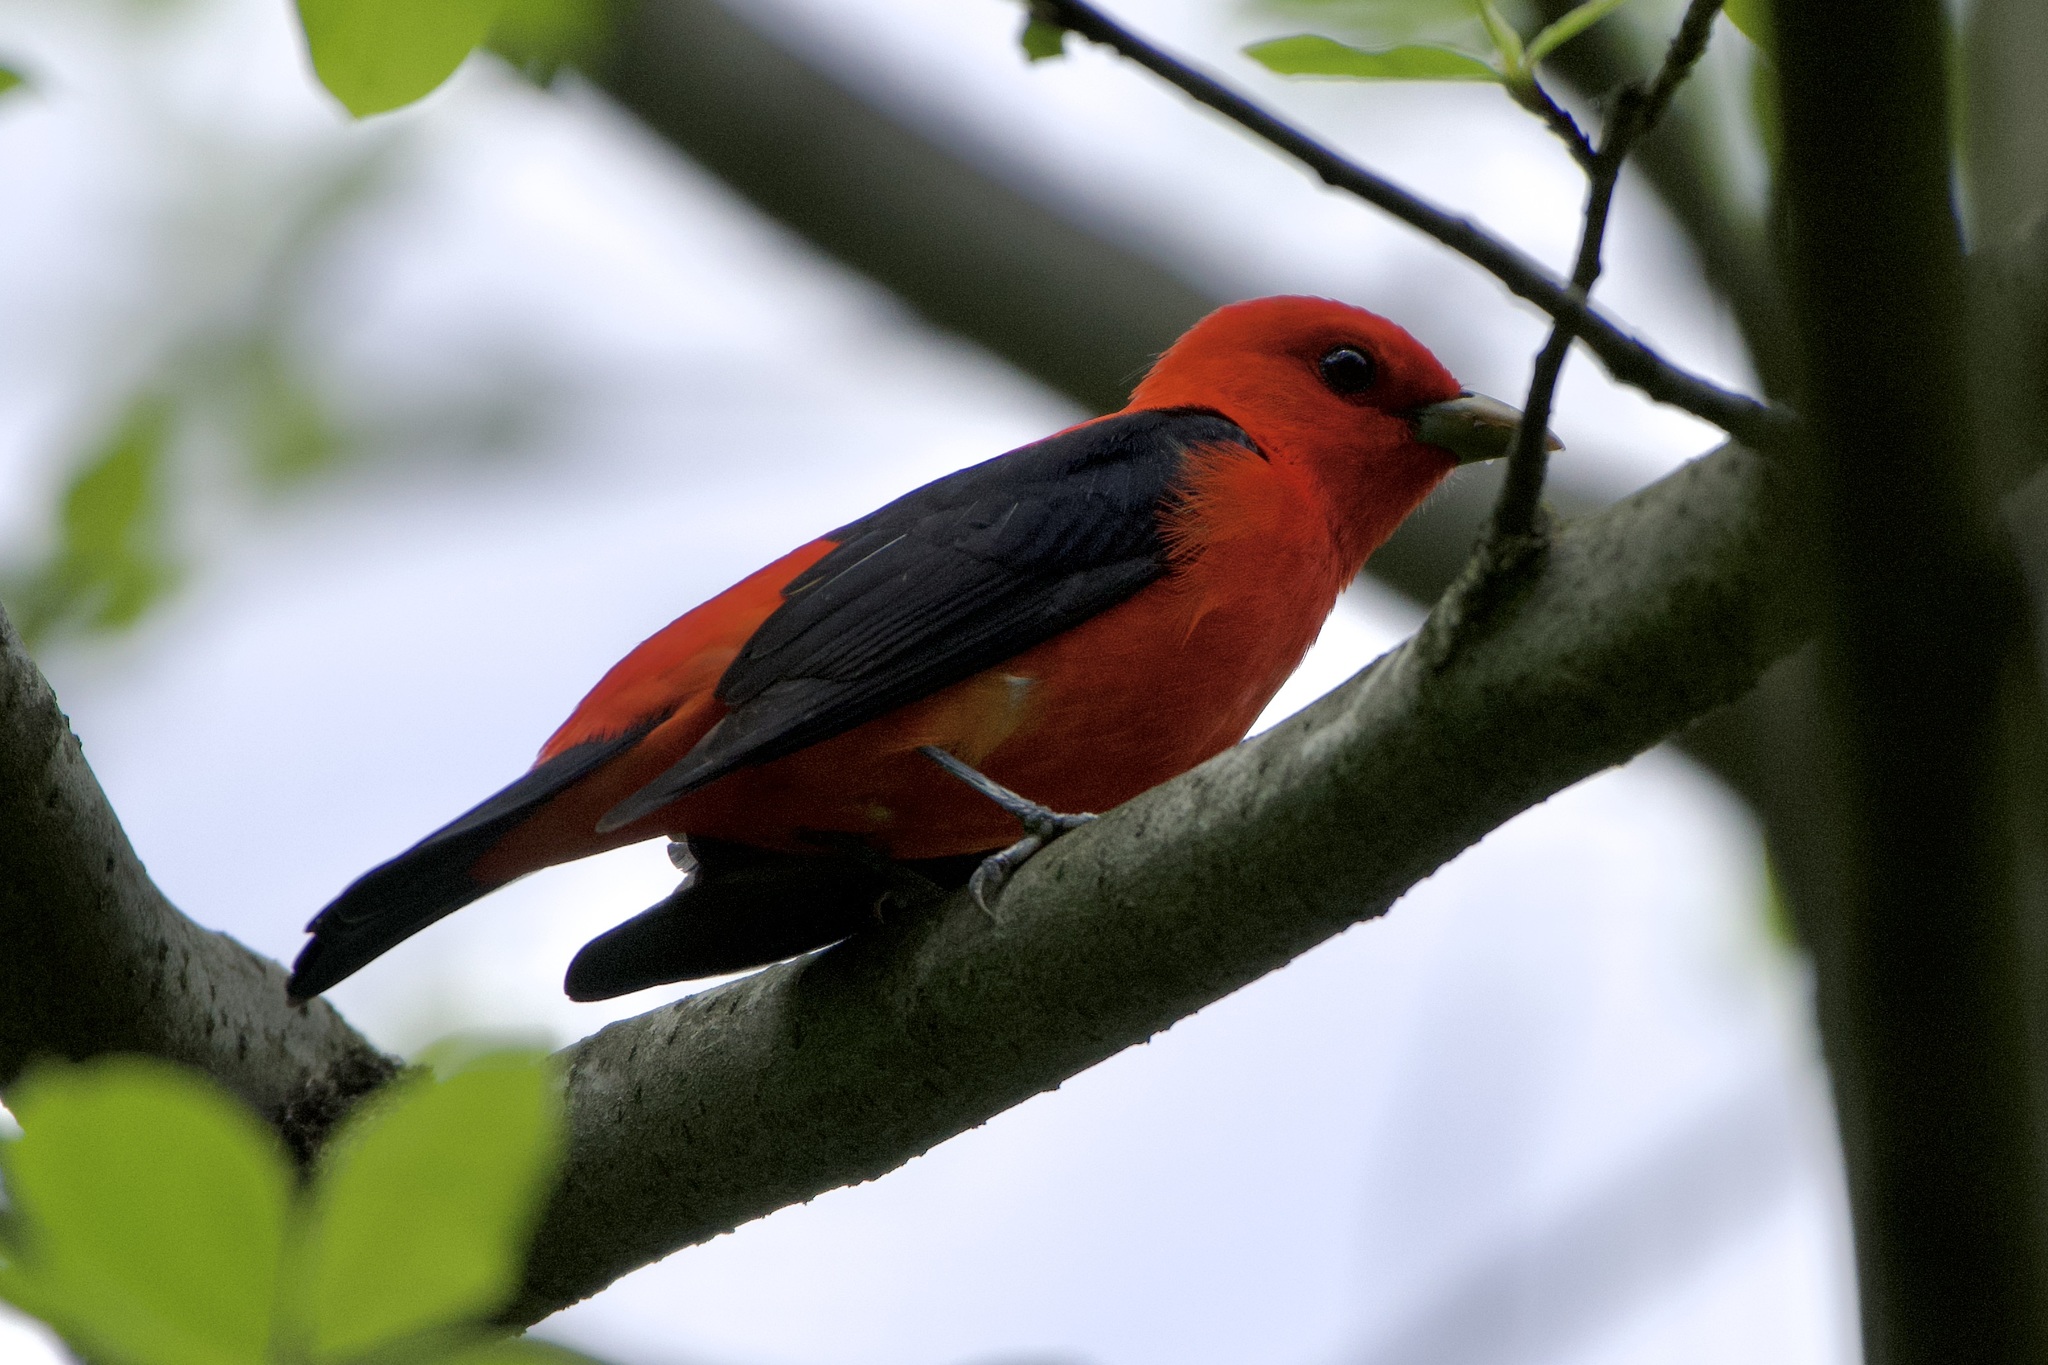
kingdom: Animalia
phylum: Chordata
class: Aves
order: Passeriformes
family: Cardinalidae
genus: Piranga
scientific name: Piranga olivacea
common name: Scarlet tanager
